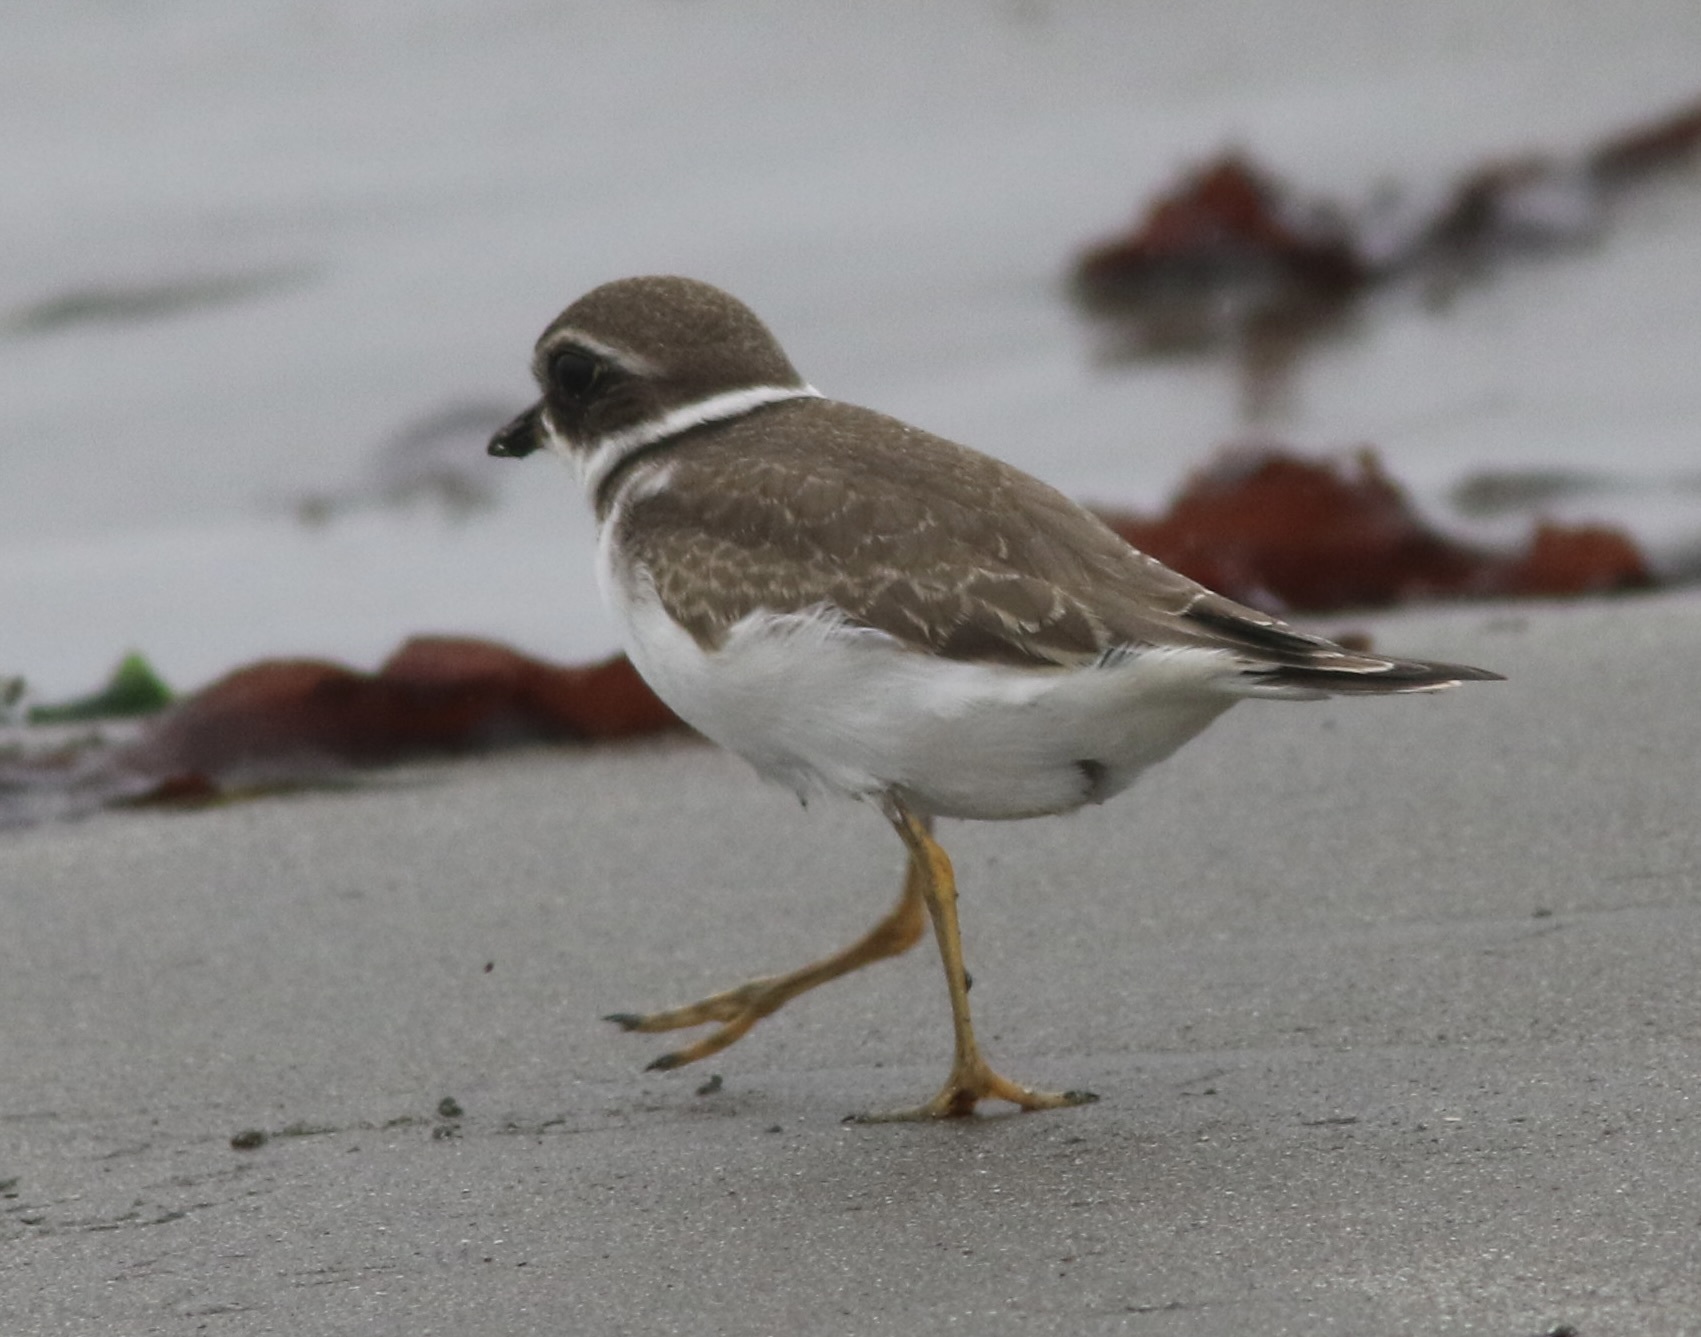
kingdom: Animalia
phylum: Chordata
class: Aves
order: Charadriiformes
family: Charadriidae
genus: Charadrius
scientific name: Charadrius semipalmatus
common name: Semipalmated plover
